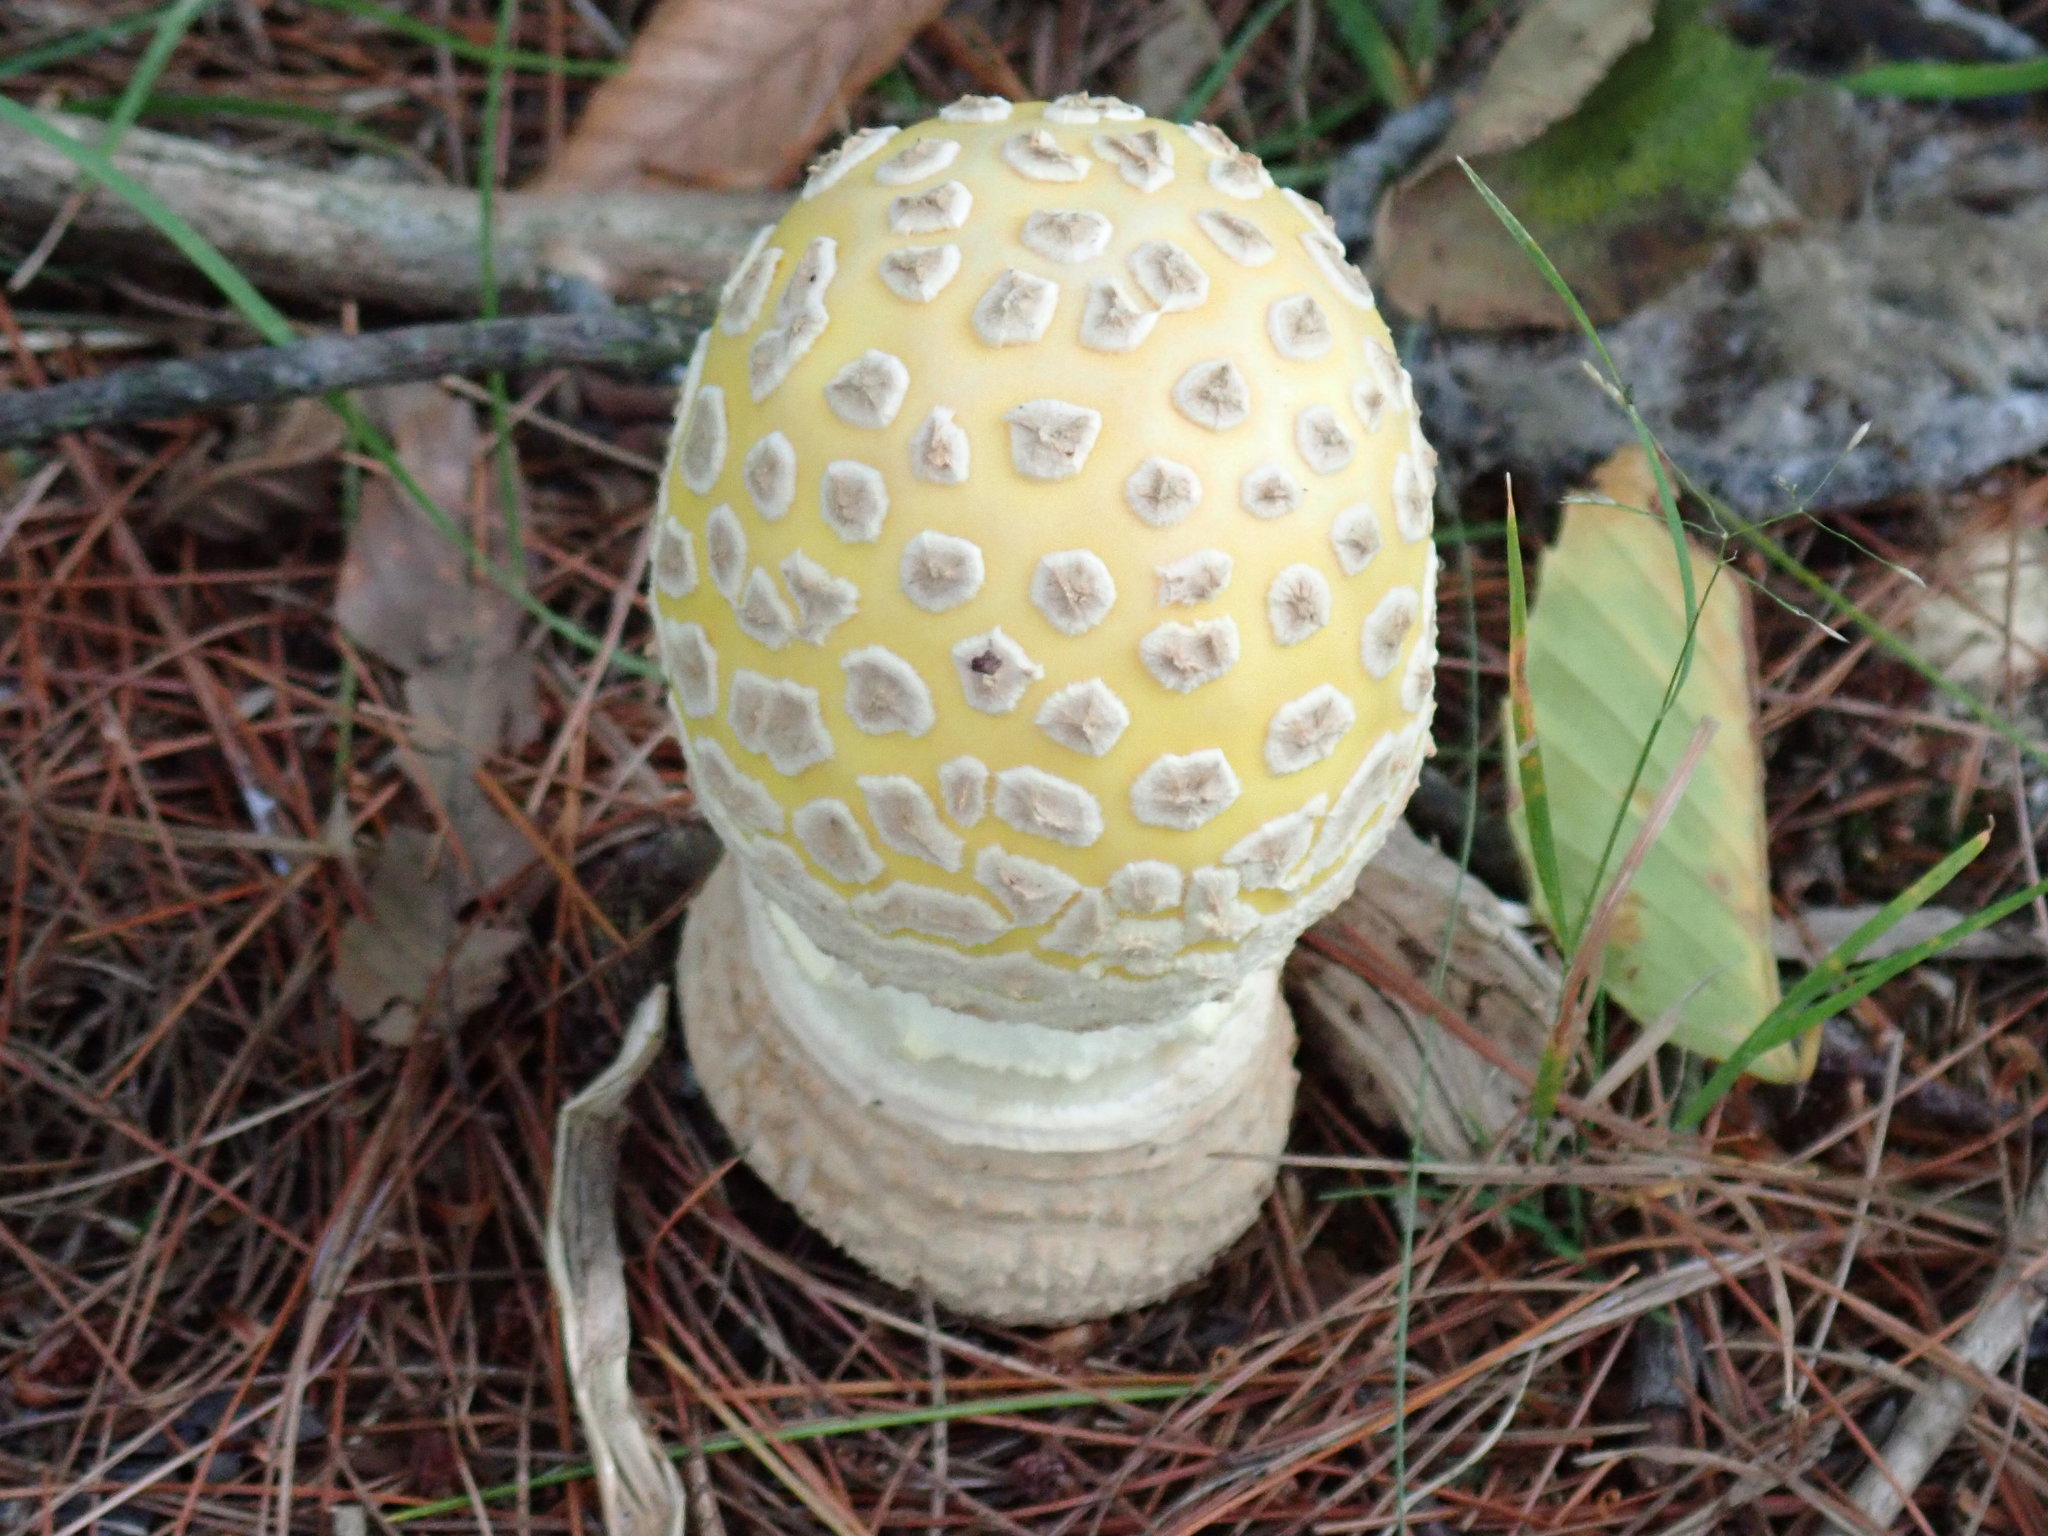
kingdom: Fungi
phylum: Basidiomycota
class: Agaricomycetes
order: Agaricales
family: Amanitaceae
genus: Amanita
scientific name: Amanita muscaria
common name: Fly agaric
